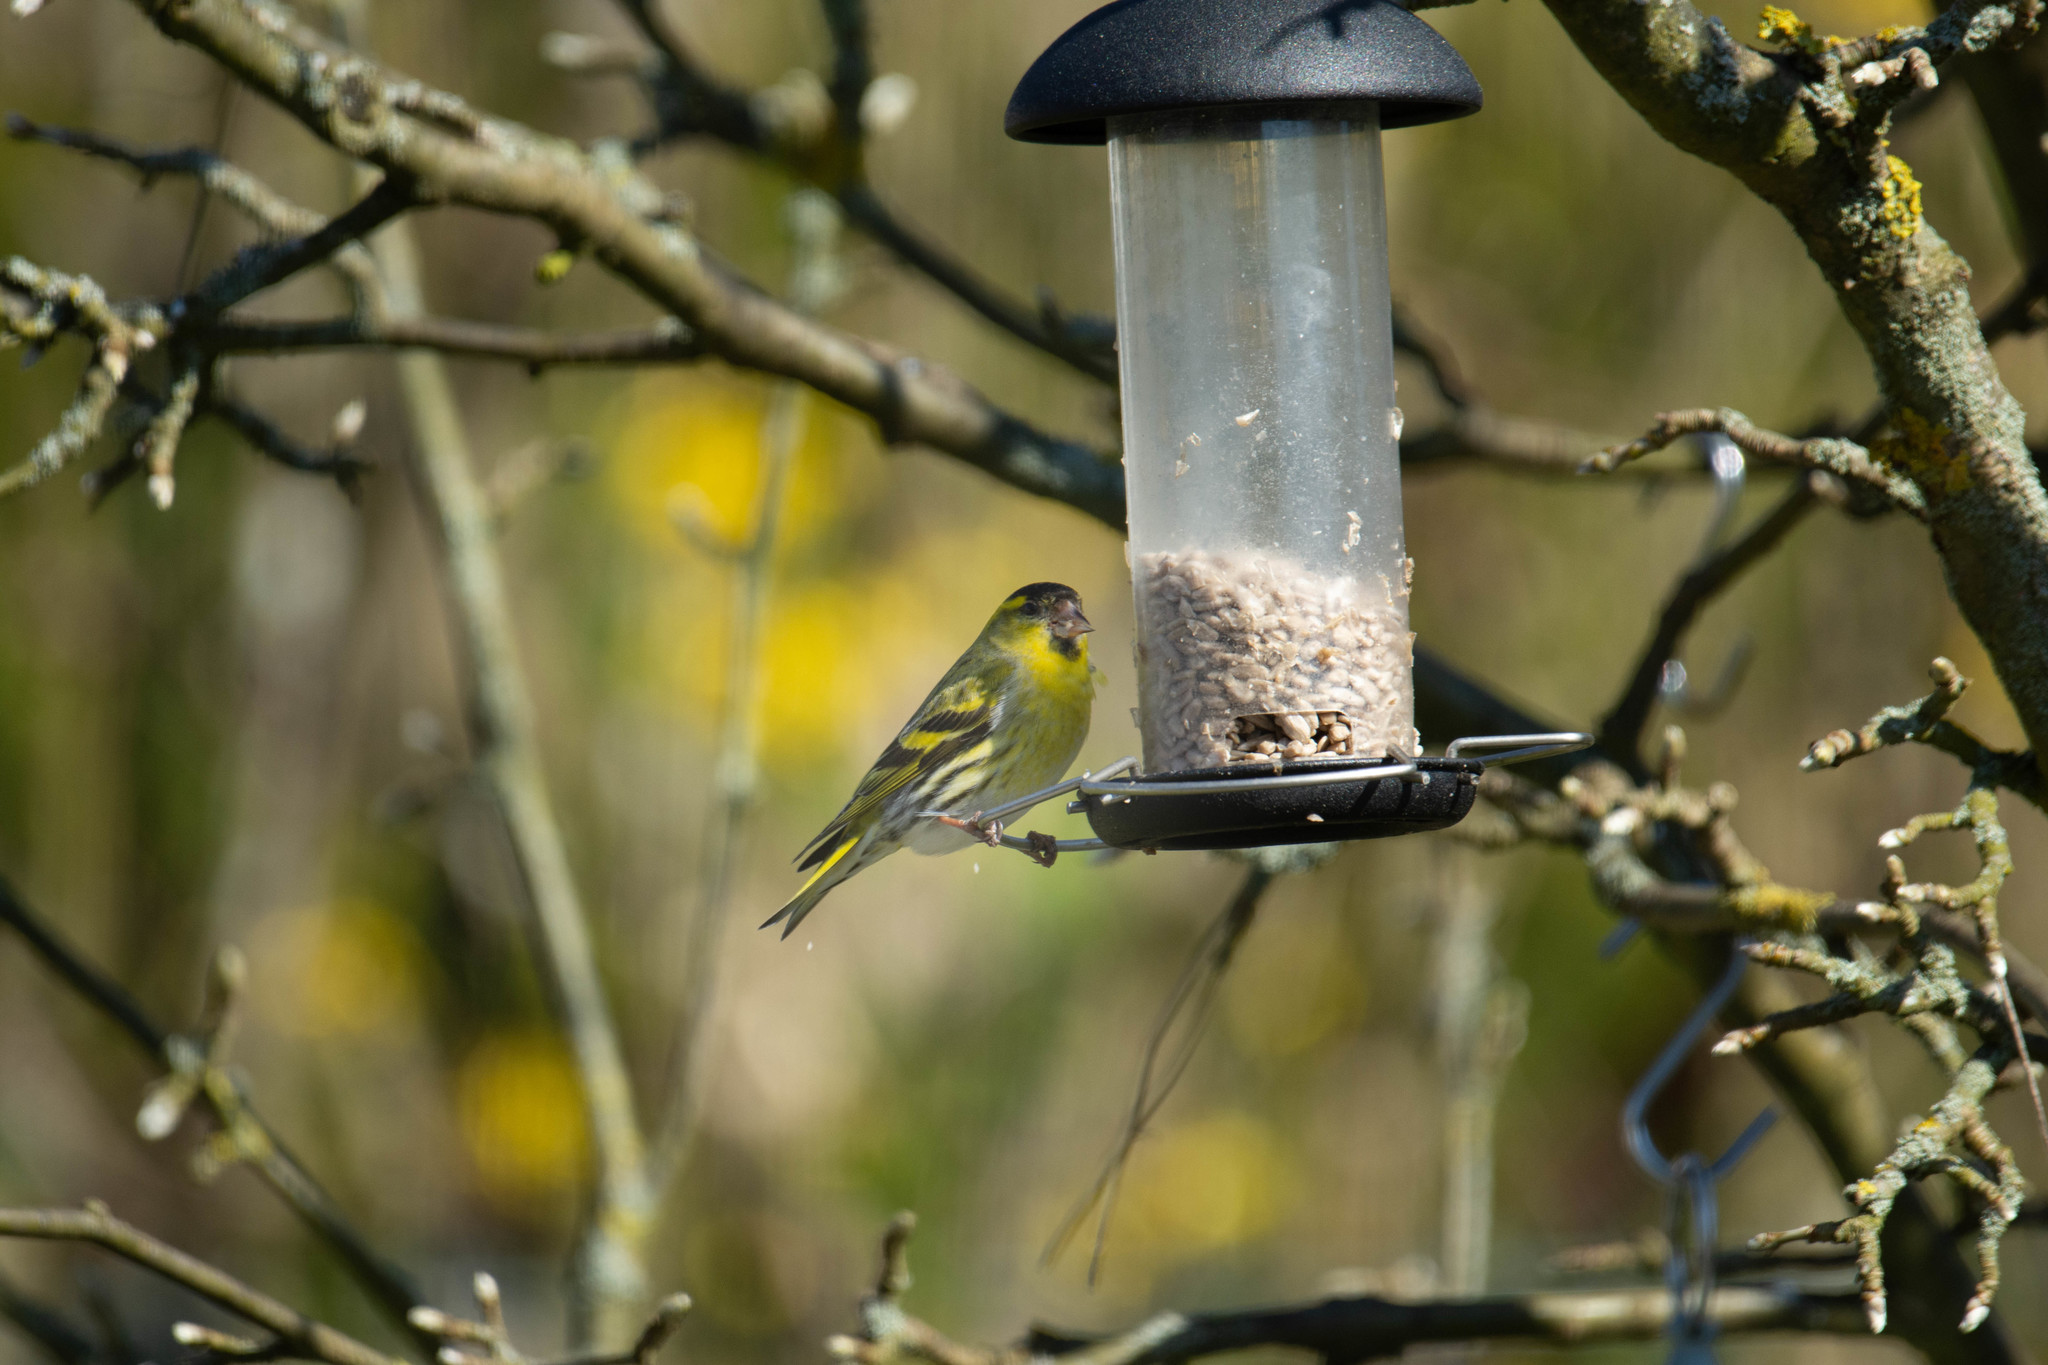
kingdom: Animalia
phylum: Chordata
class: Aves
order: Passeriformes
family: Fringillidae
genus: Spinus
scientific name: Spinus spinus
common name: Eurasian siskin
